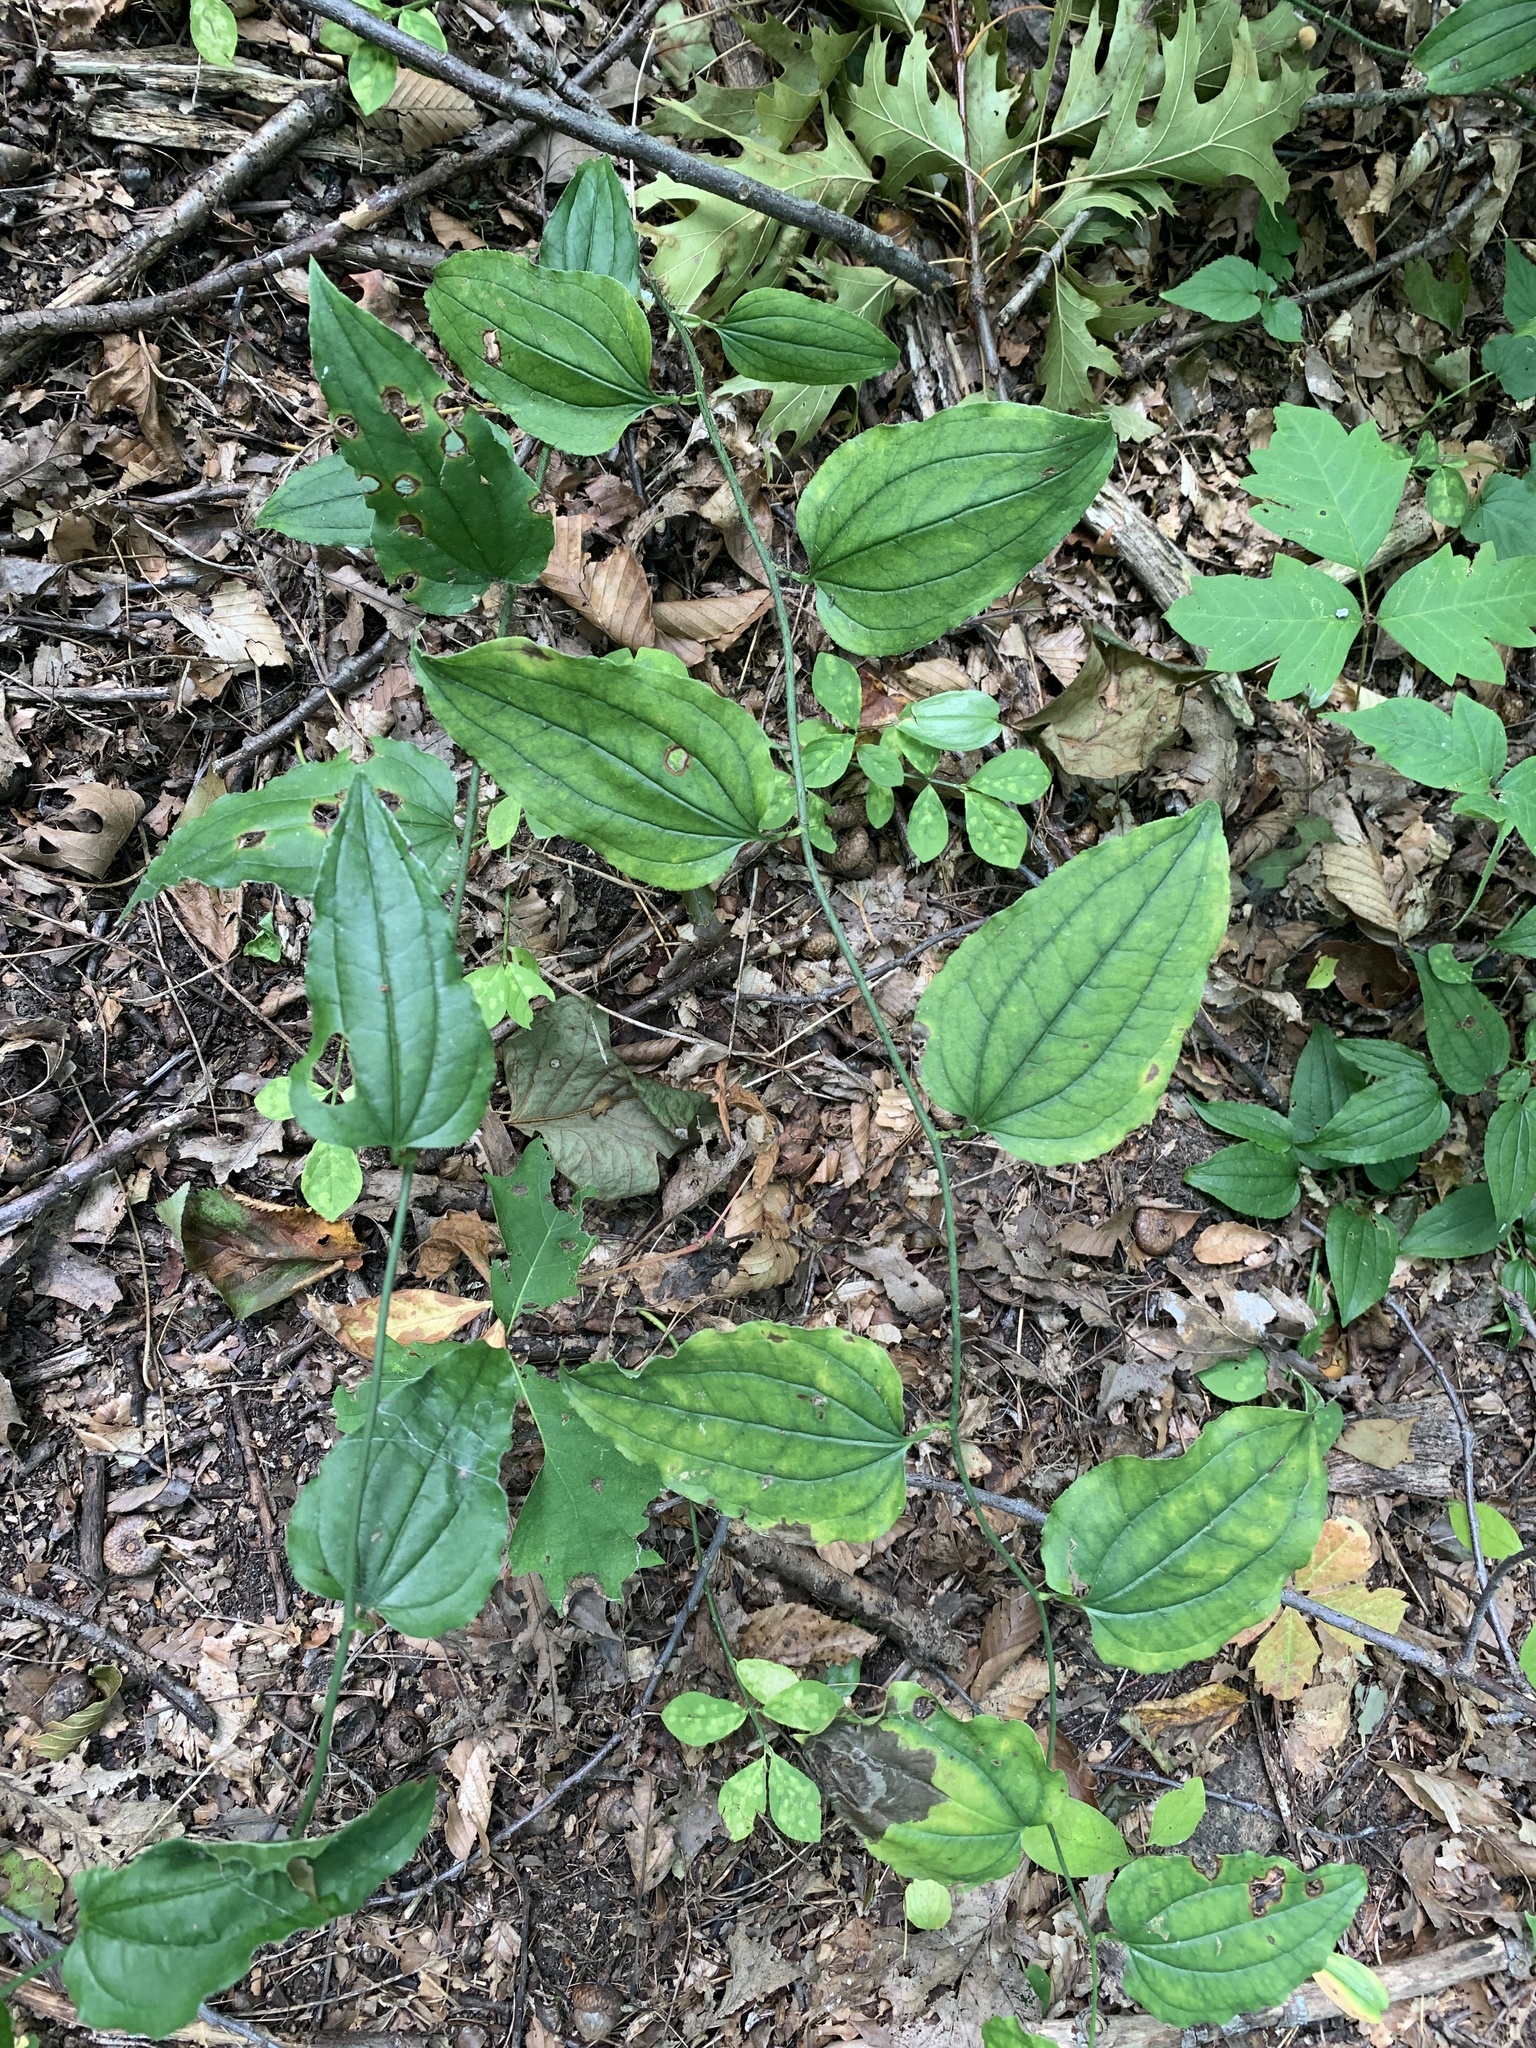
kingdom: Plantae
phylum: Tracheophyta
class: Liliopsida
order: Liliales
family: Smilacaceae
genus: Smilax
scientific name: Smilax tamnoides
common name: Hellfetter
